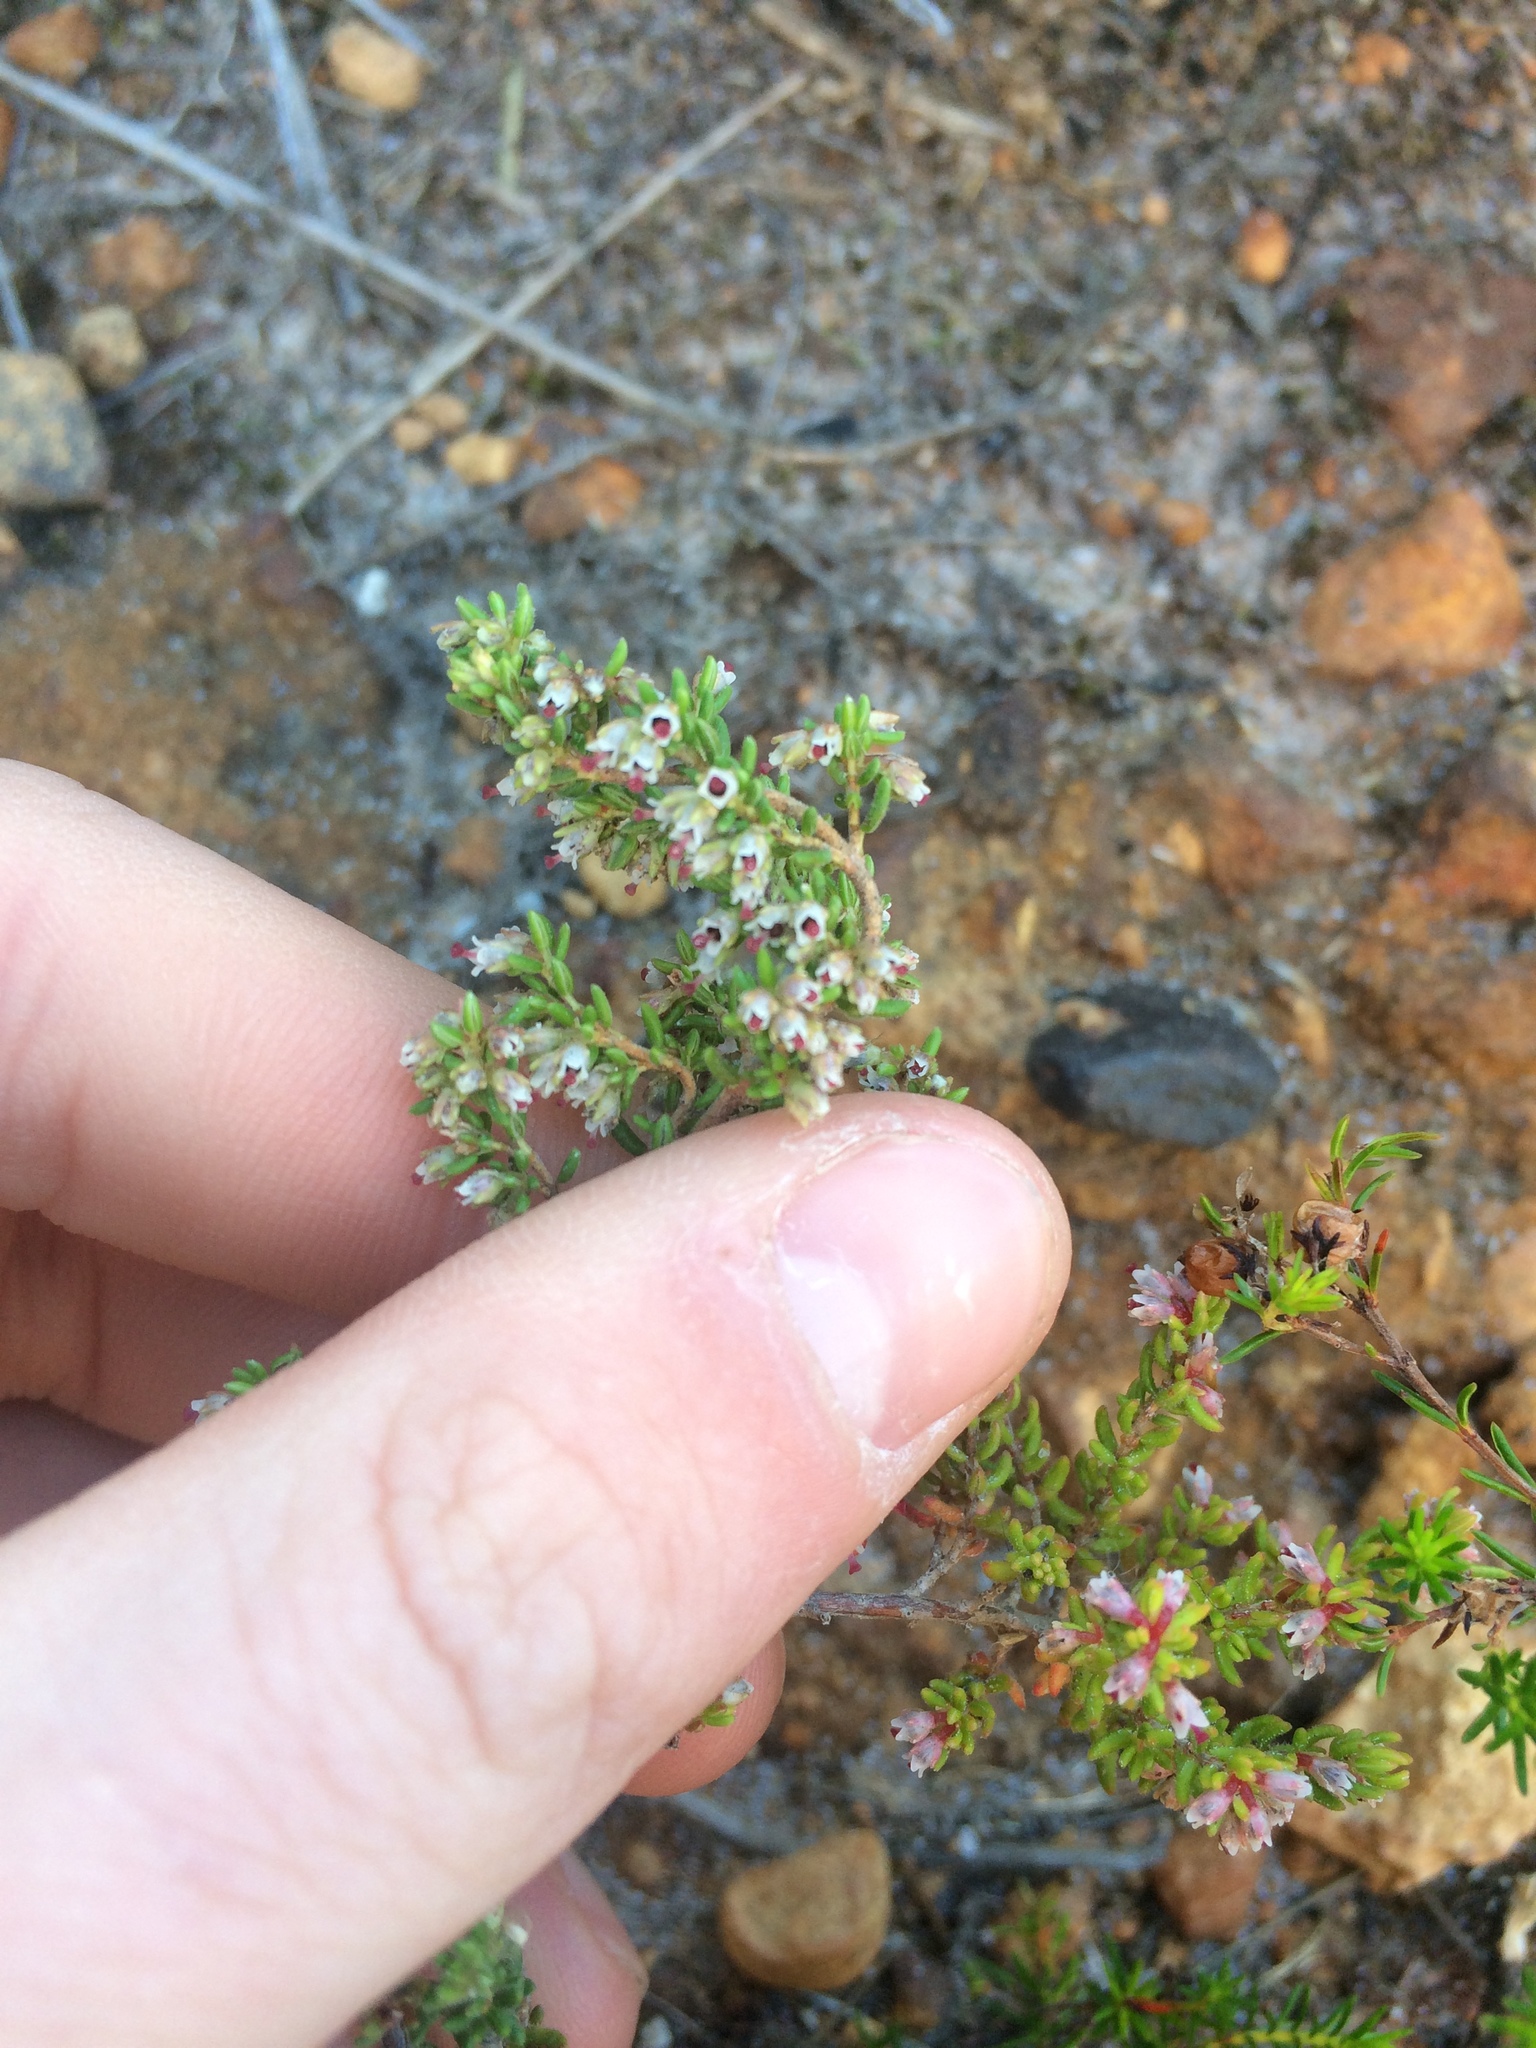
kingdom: Plantae
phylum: Tracheophyta
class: Magnoliopsida
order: Ericales
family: Ericaceae
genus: Erica
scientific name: Erica hispidula
